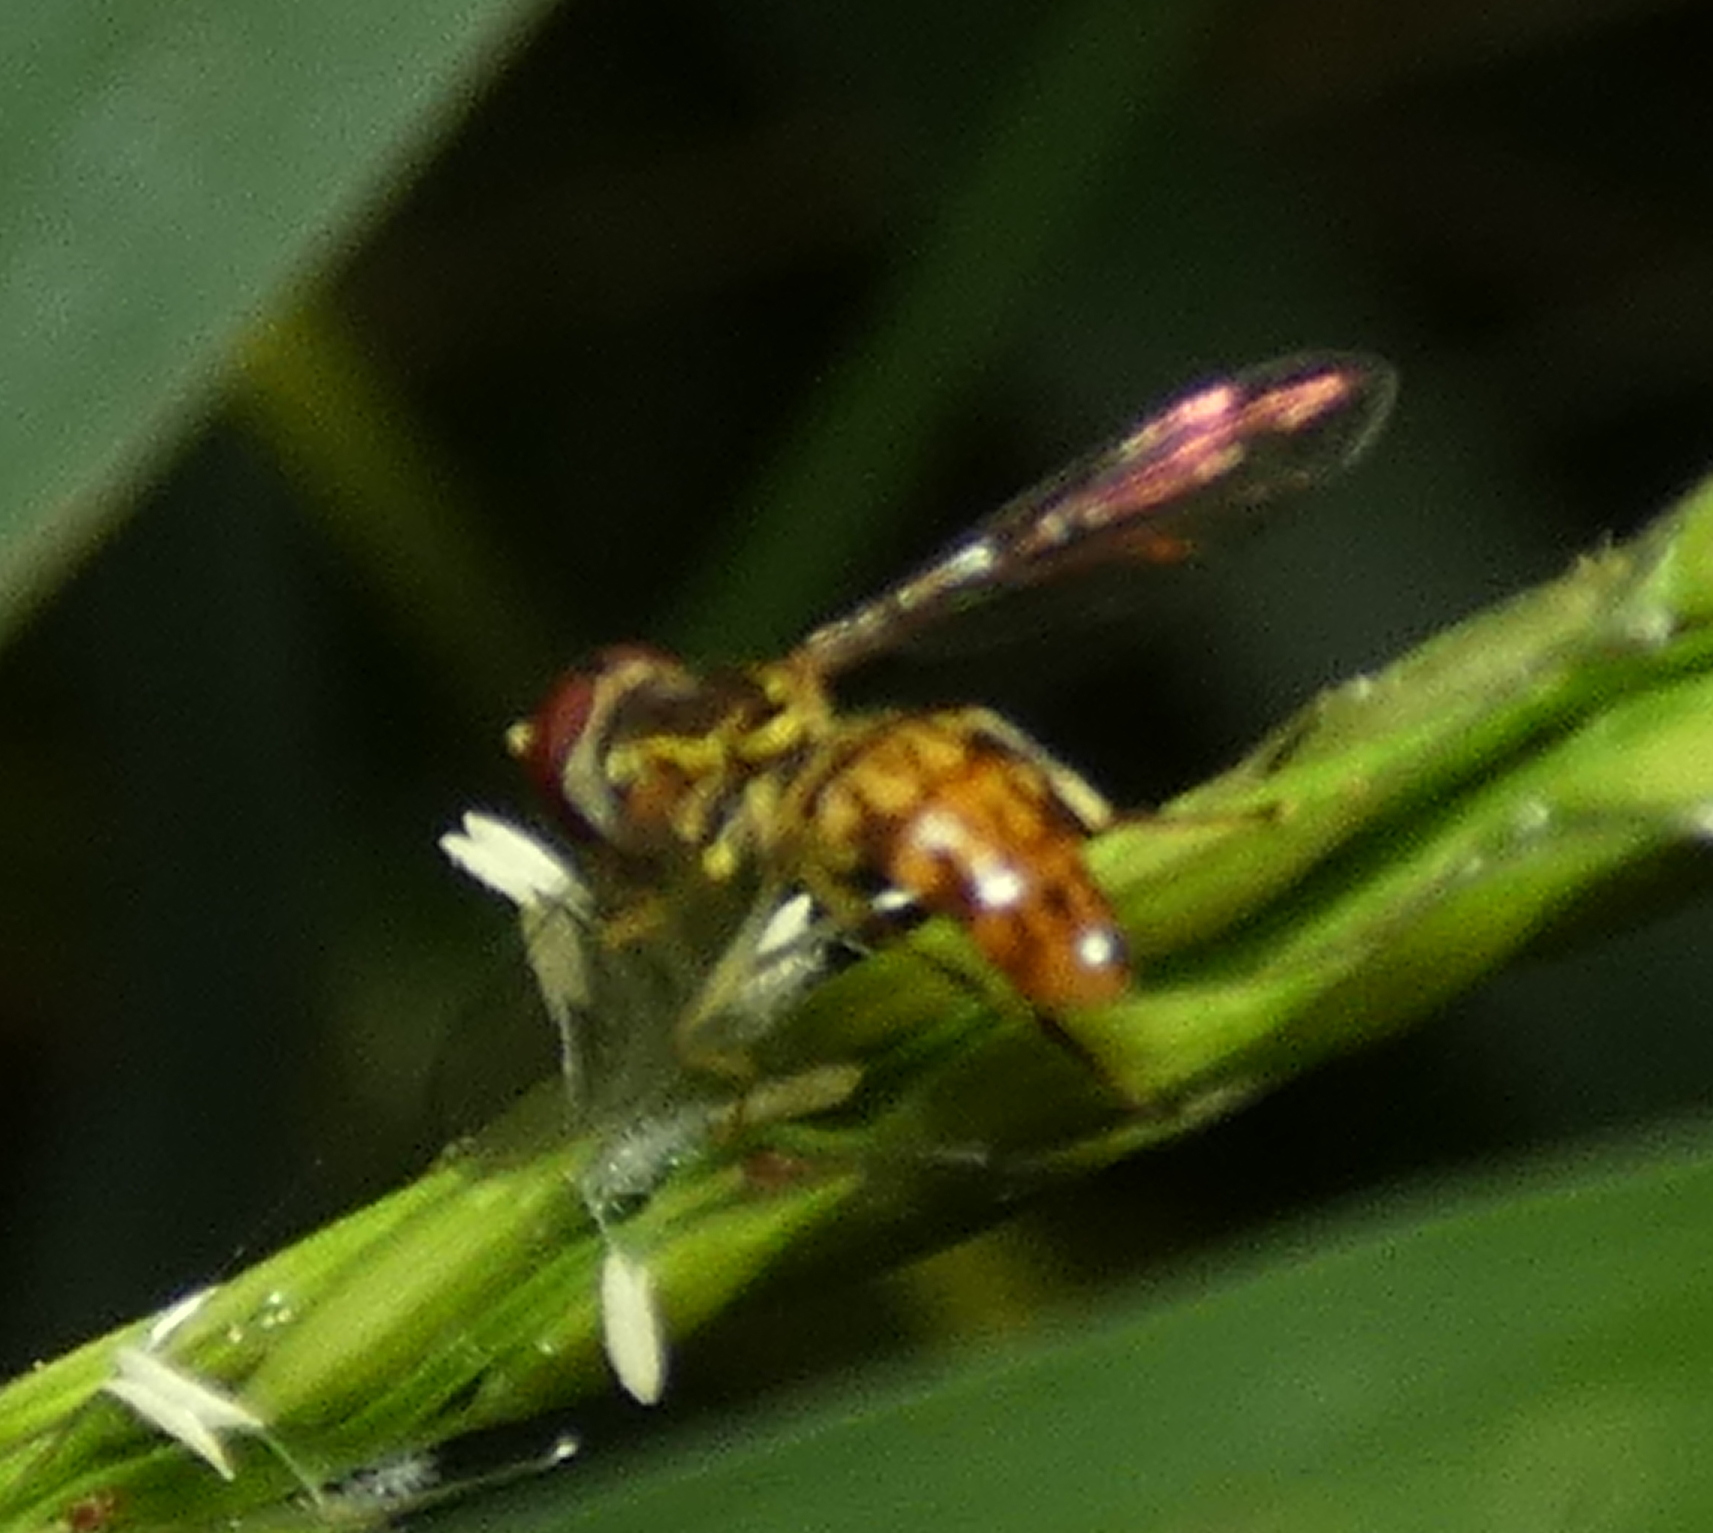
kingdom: Animalia
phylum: Arthropoda
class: Insecta
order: Diptera
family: Syrphidae
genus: Toxomerus
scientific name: Toxomerus pictus
